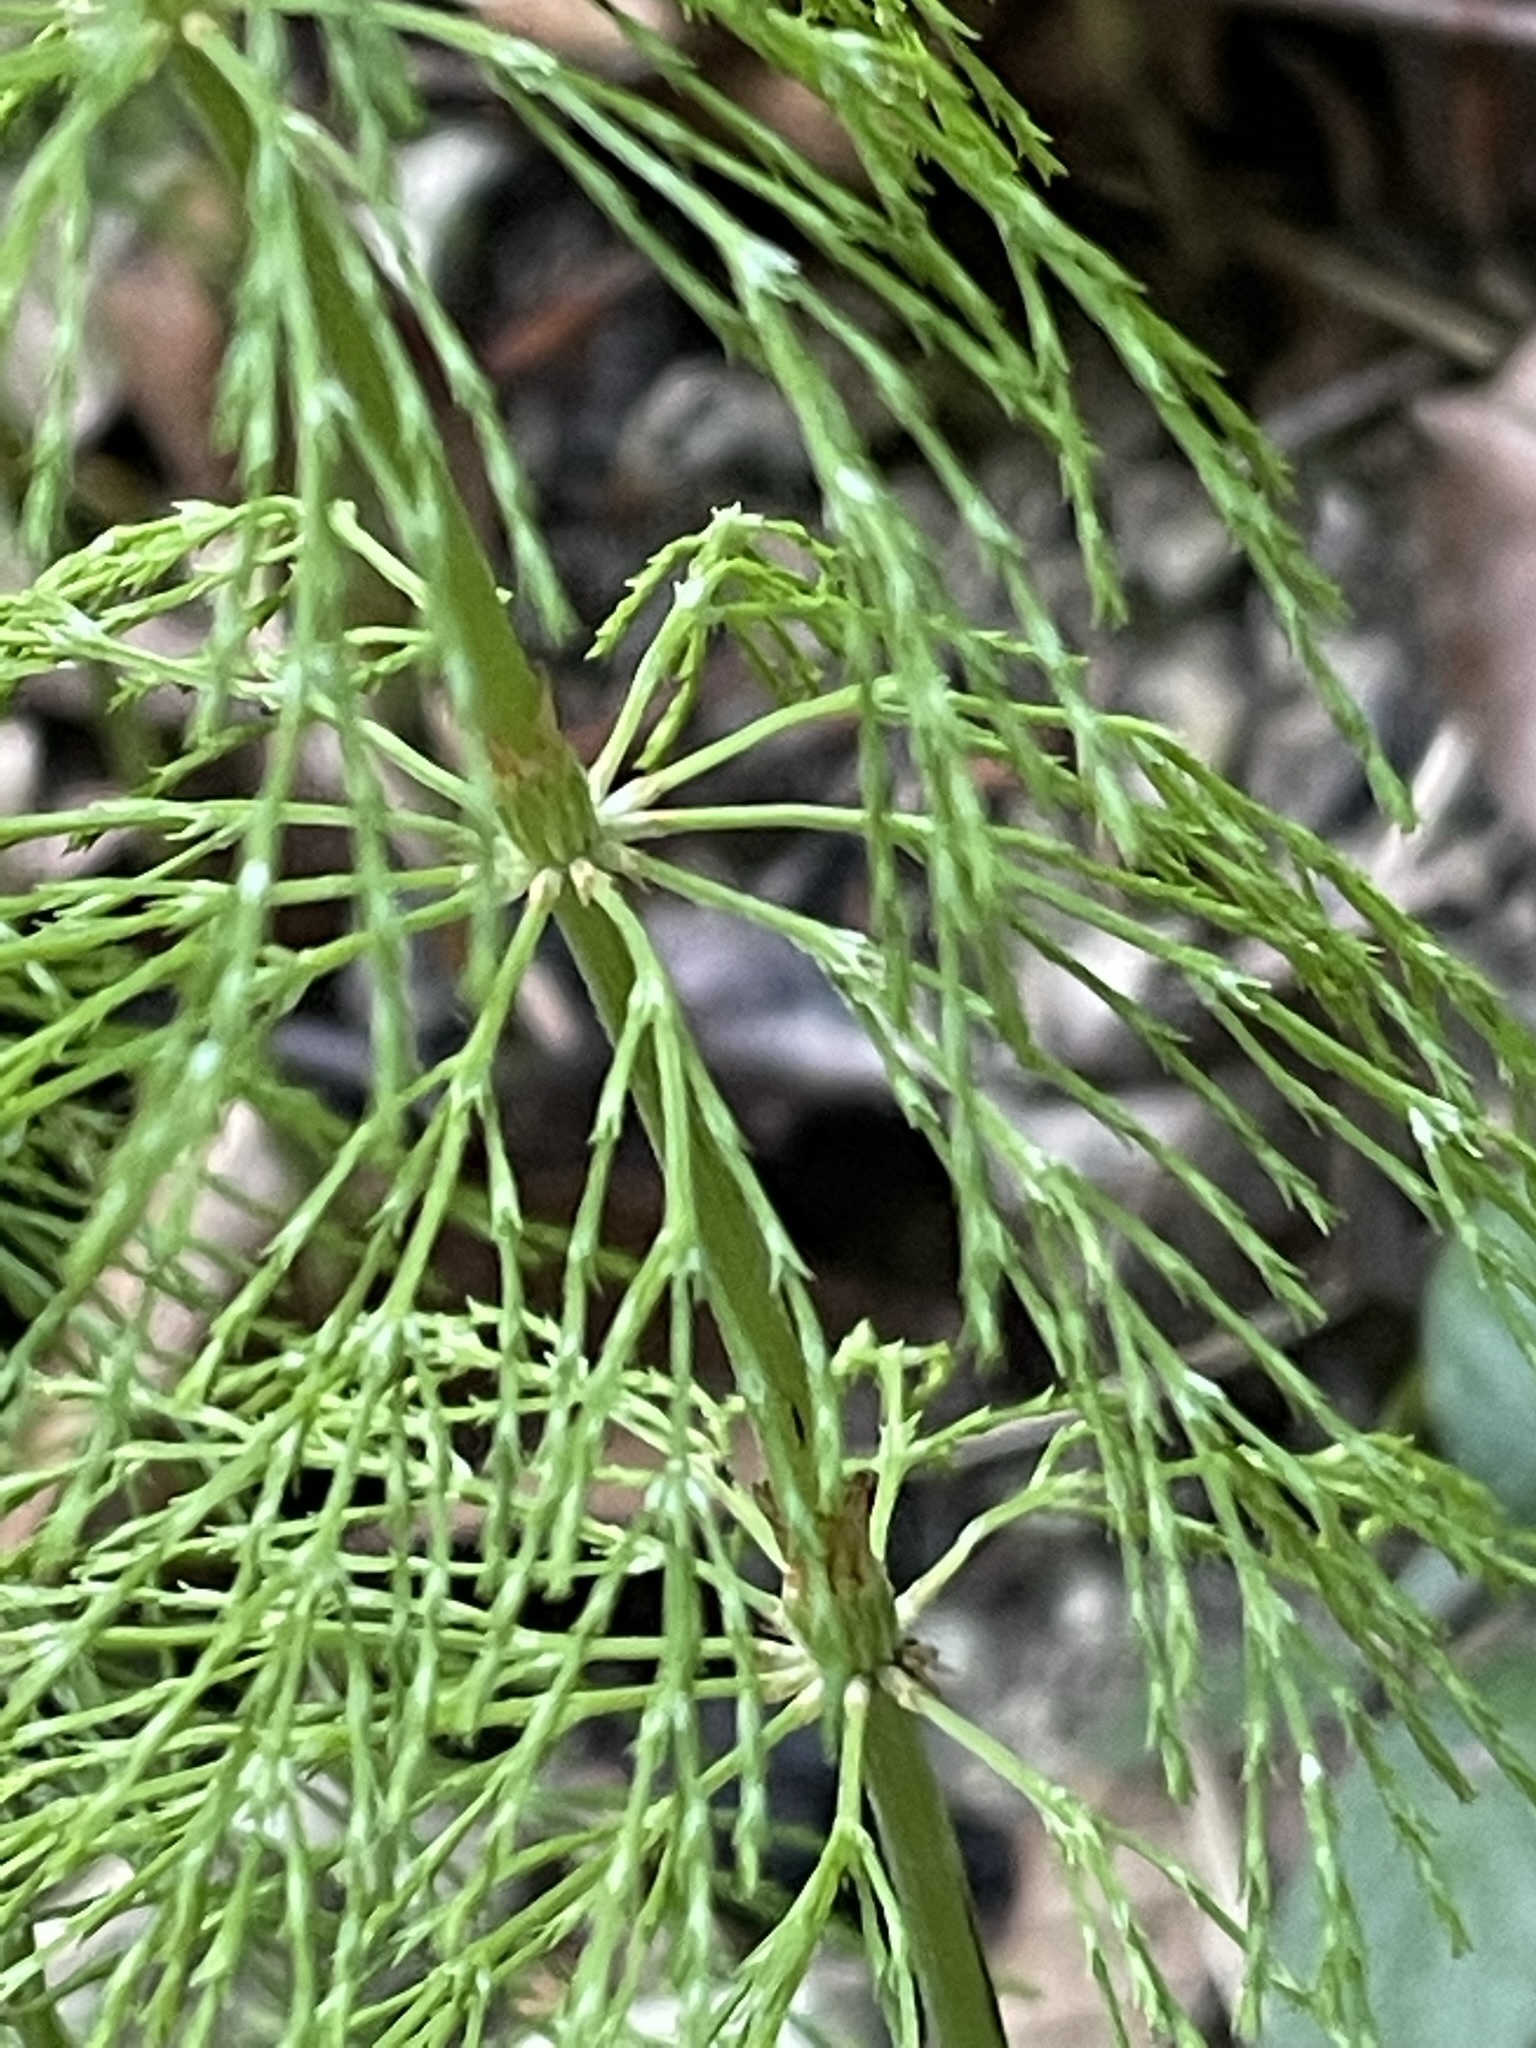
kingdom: Plantae
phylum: Tracheophyta
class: Polypodiopsida
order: Equisetales
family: Equisetaceae
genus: Equisetum
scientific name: Equisetum sylvaticum
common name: Wood horsetail
